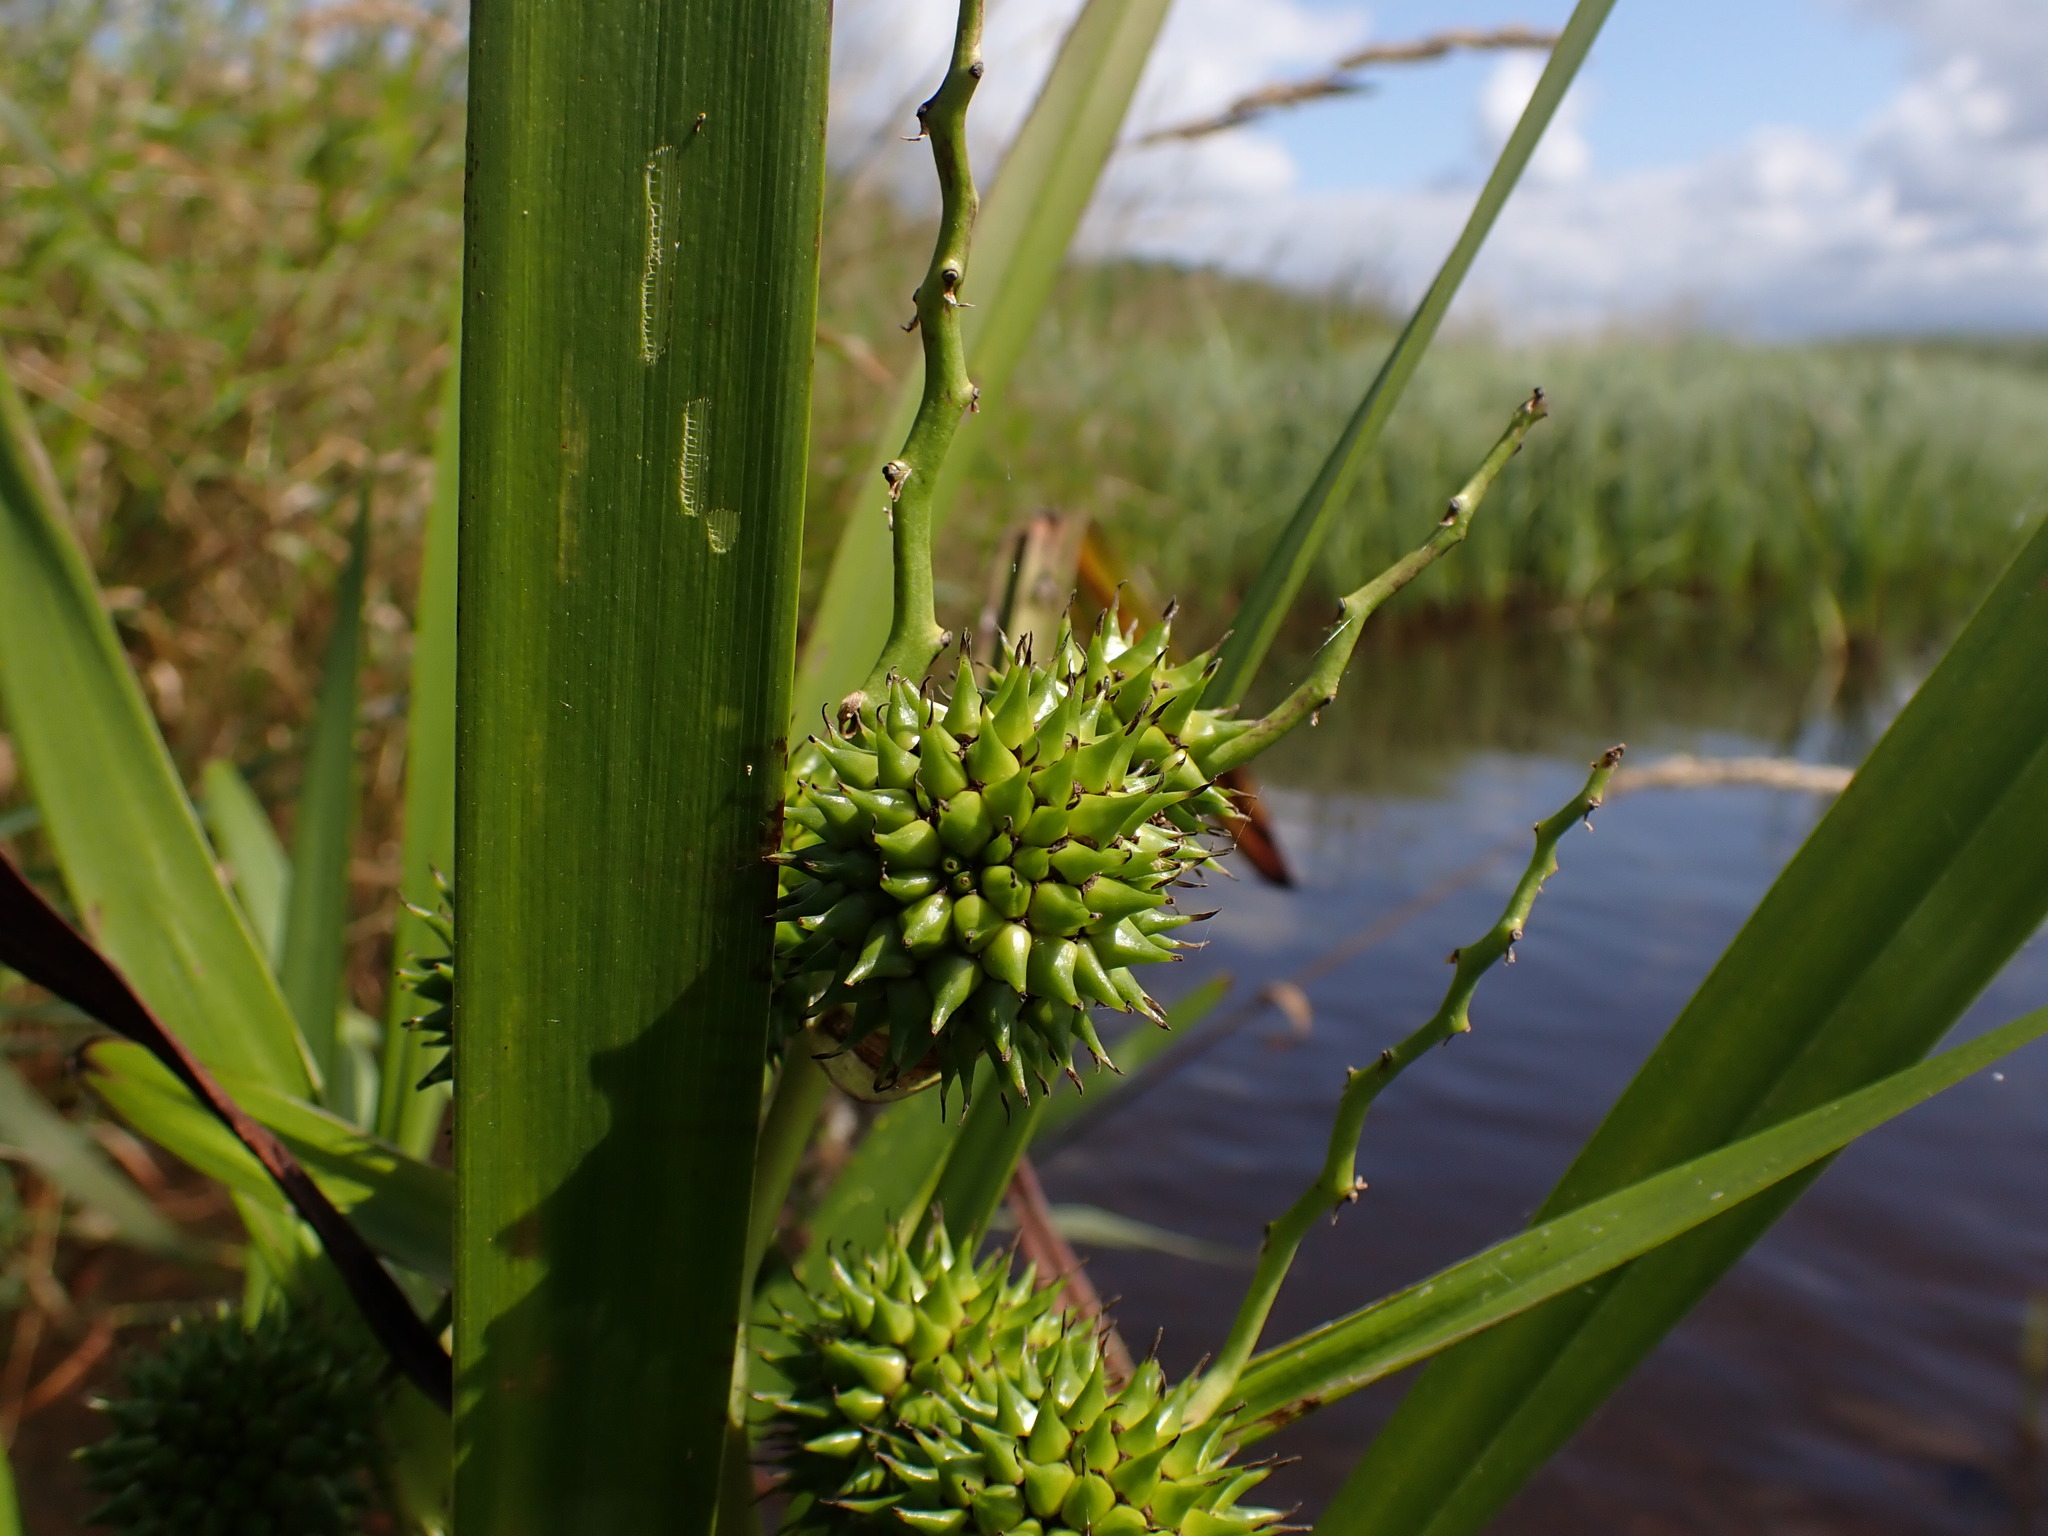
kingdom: Plantae
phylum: Tracheophyta
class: Liliopsida
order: Poales
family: Typhaceae
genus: Sparganium
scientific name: Sparganium erectum
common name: Branched bur-reed
